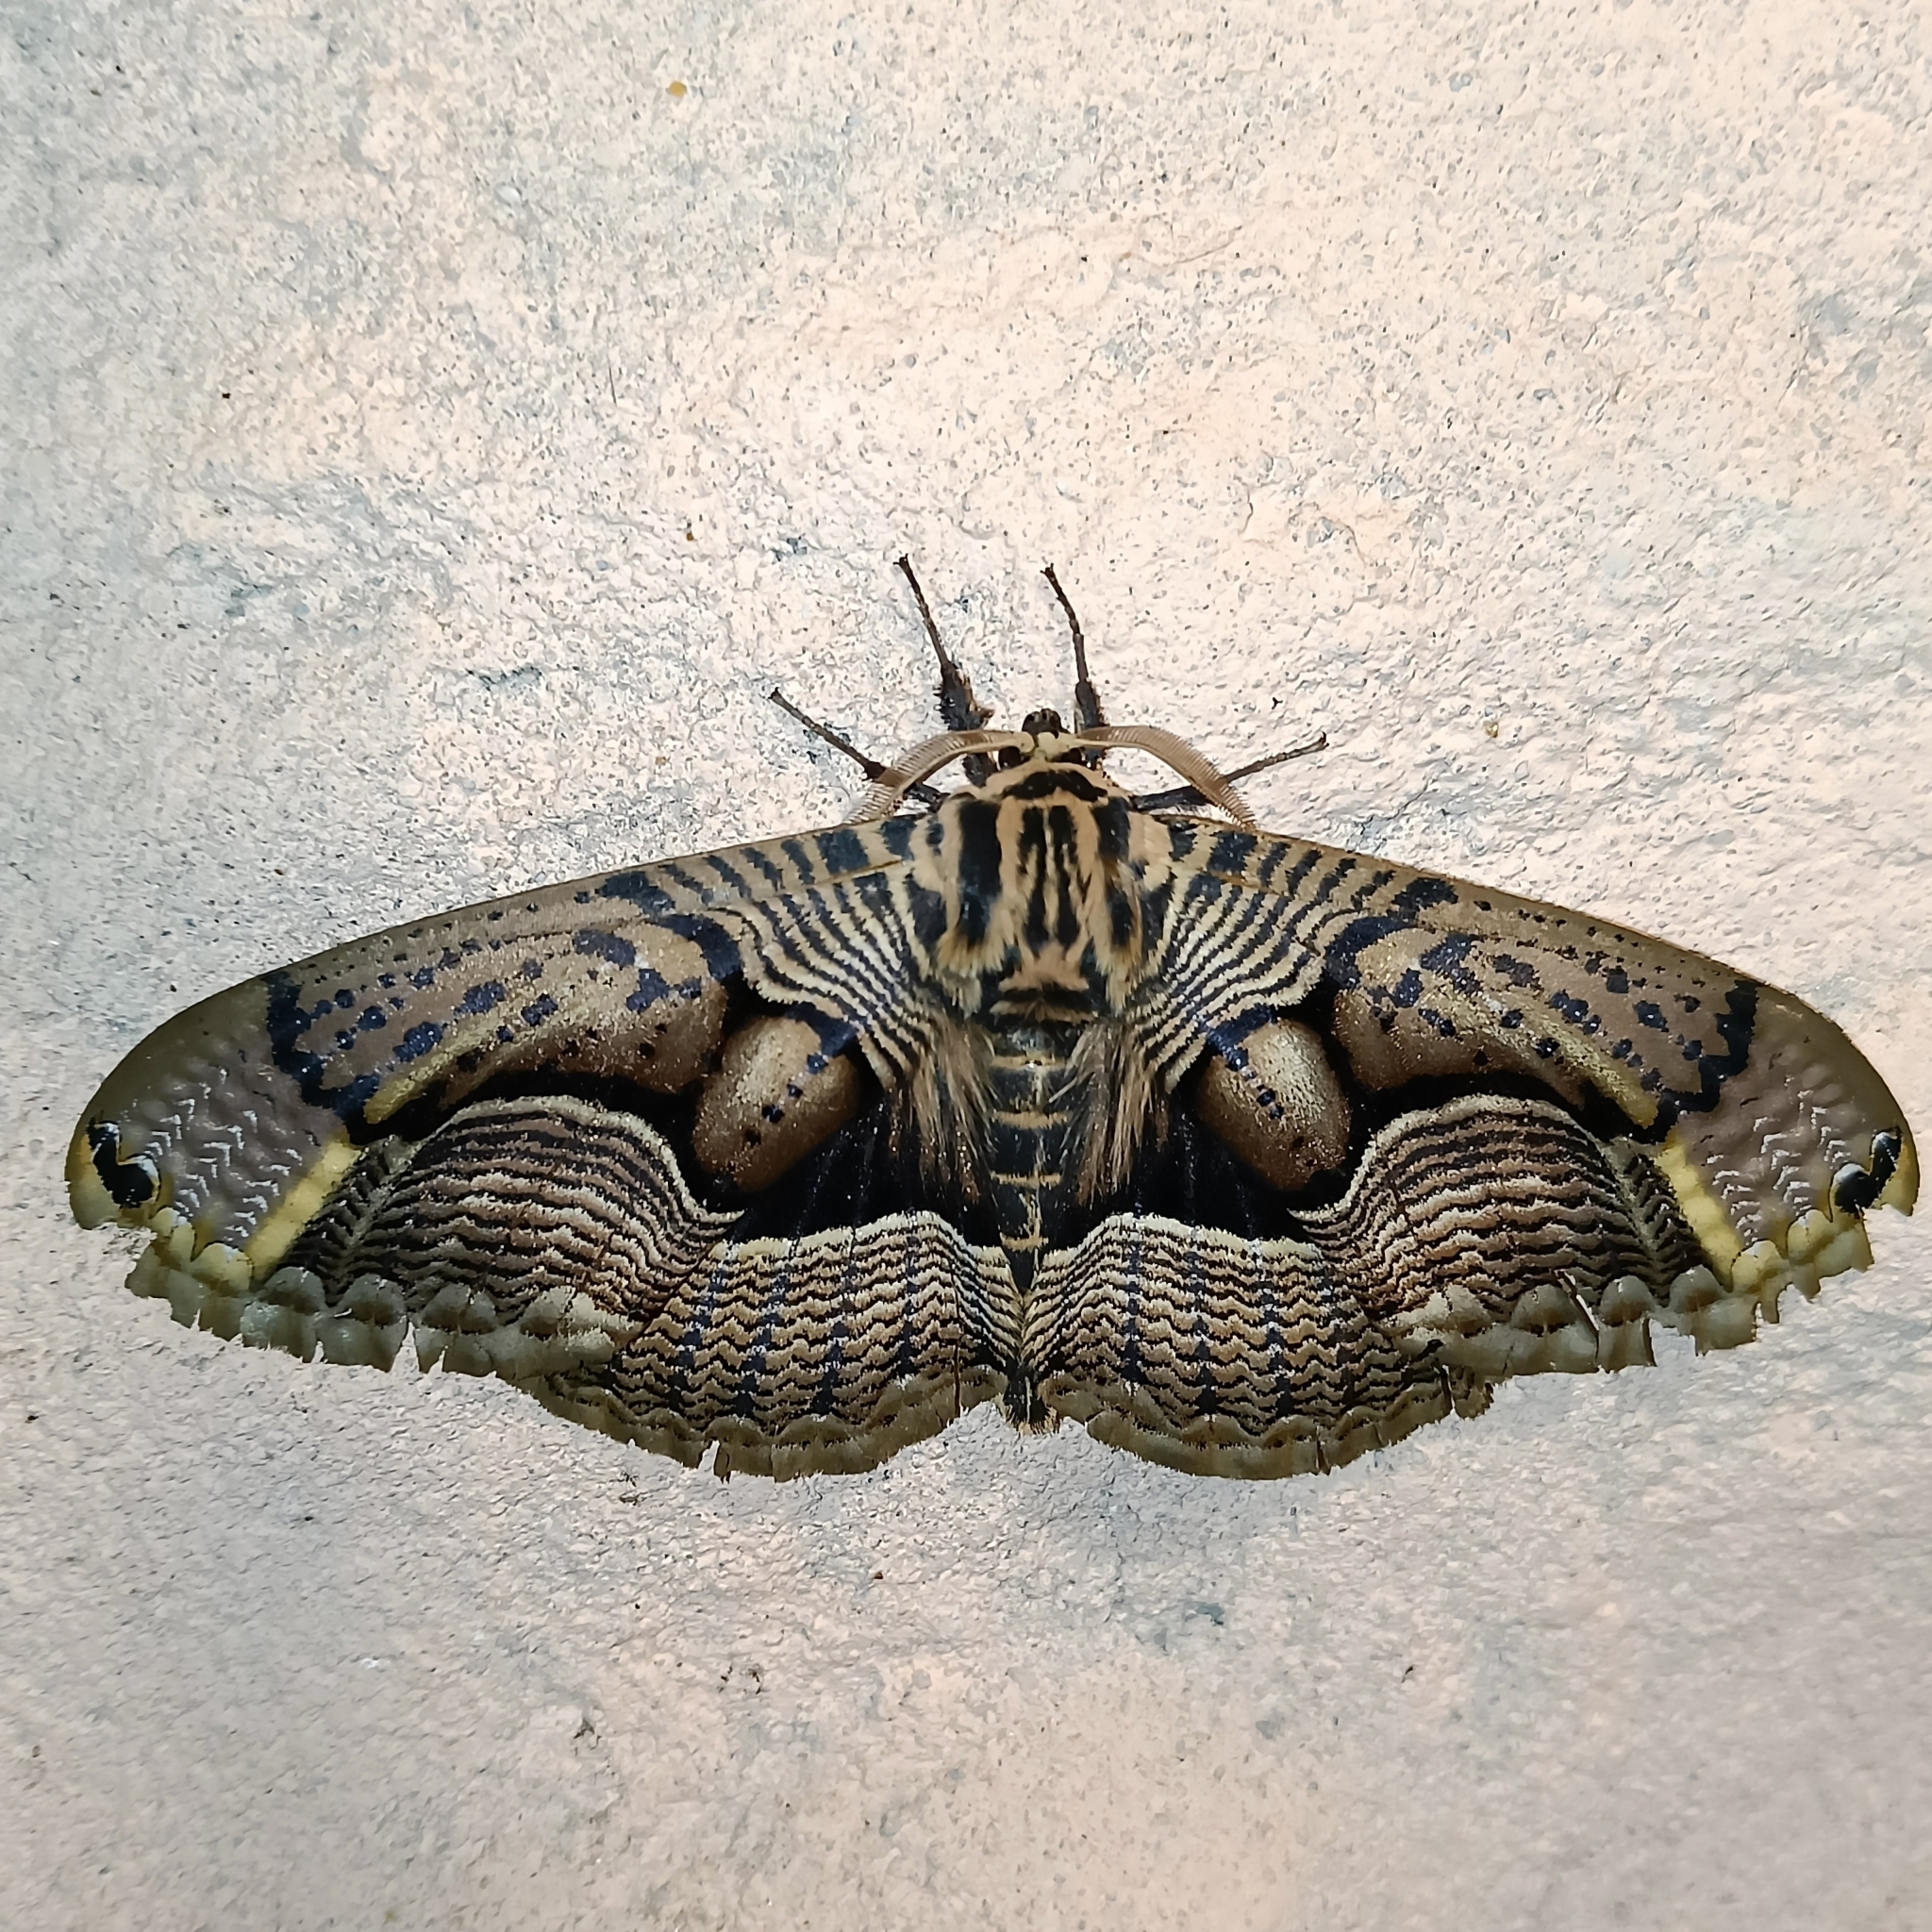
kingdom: Animalia
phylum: Arthropoda
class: Insecta
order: Lepidoptera
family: Brahmaeidae
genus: Brahmaea
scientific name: Brahmaea wallichii
